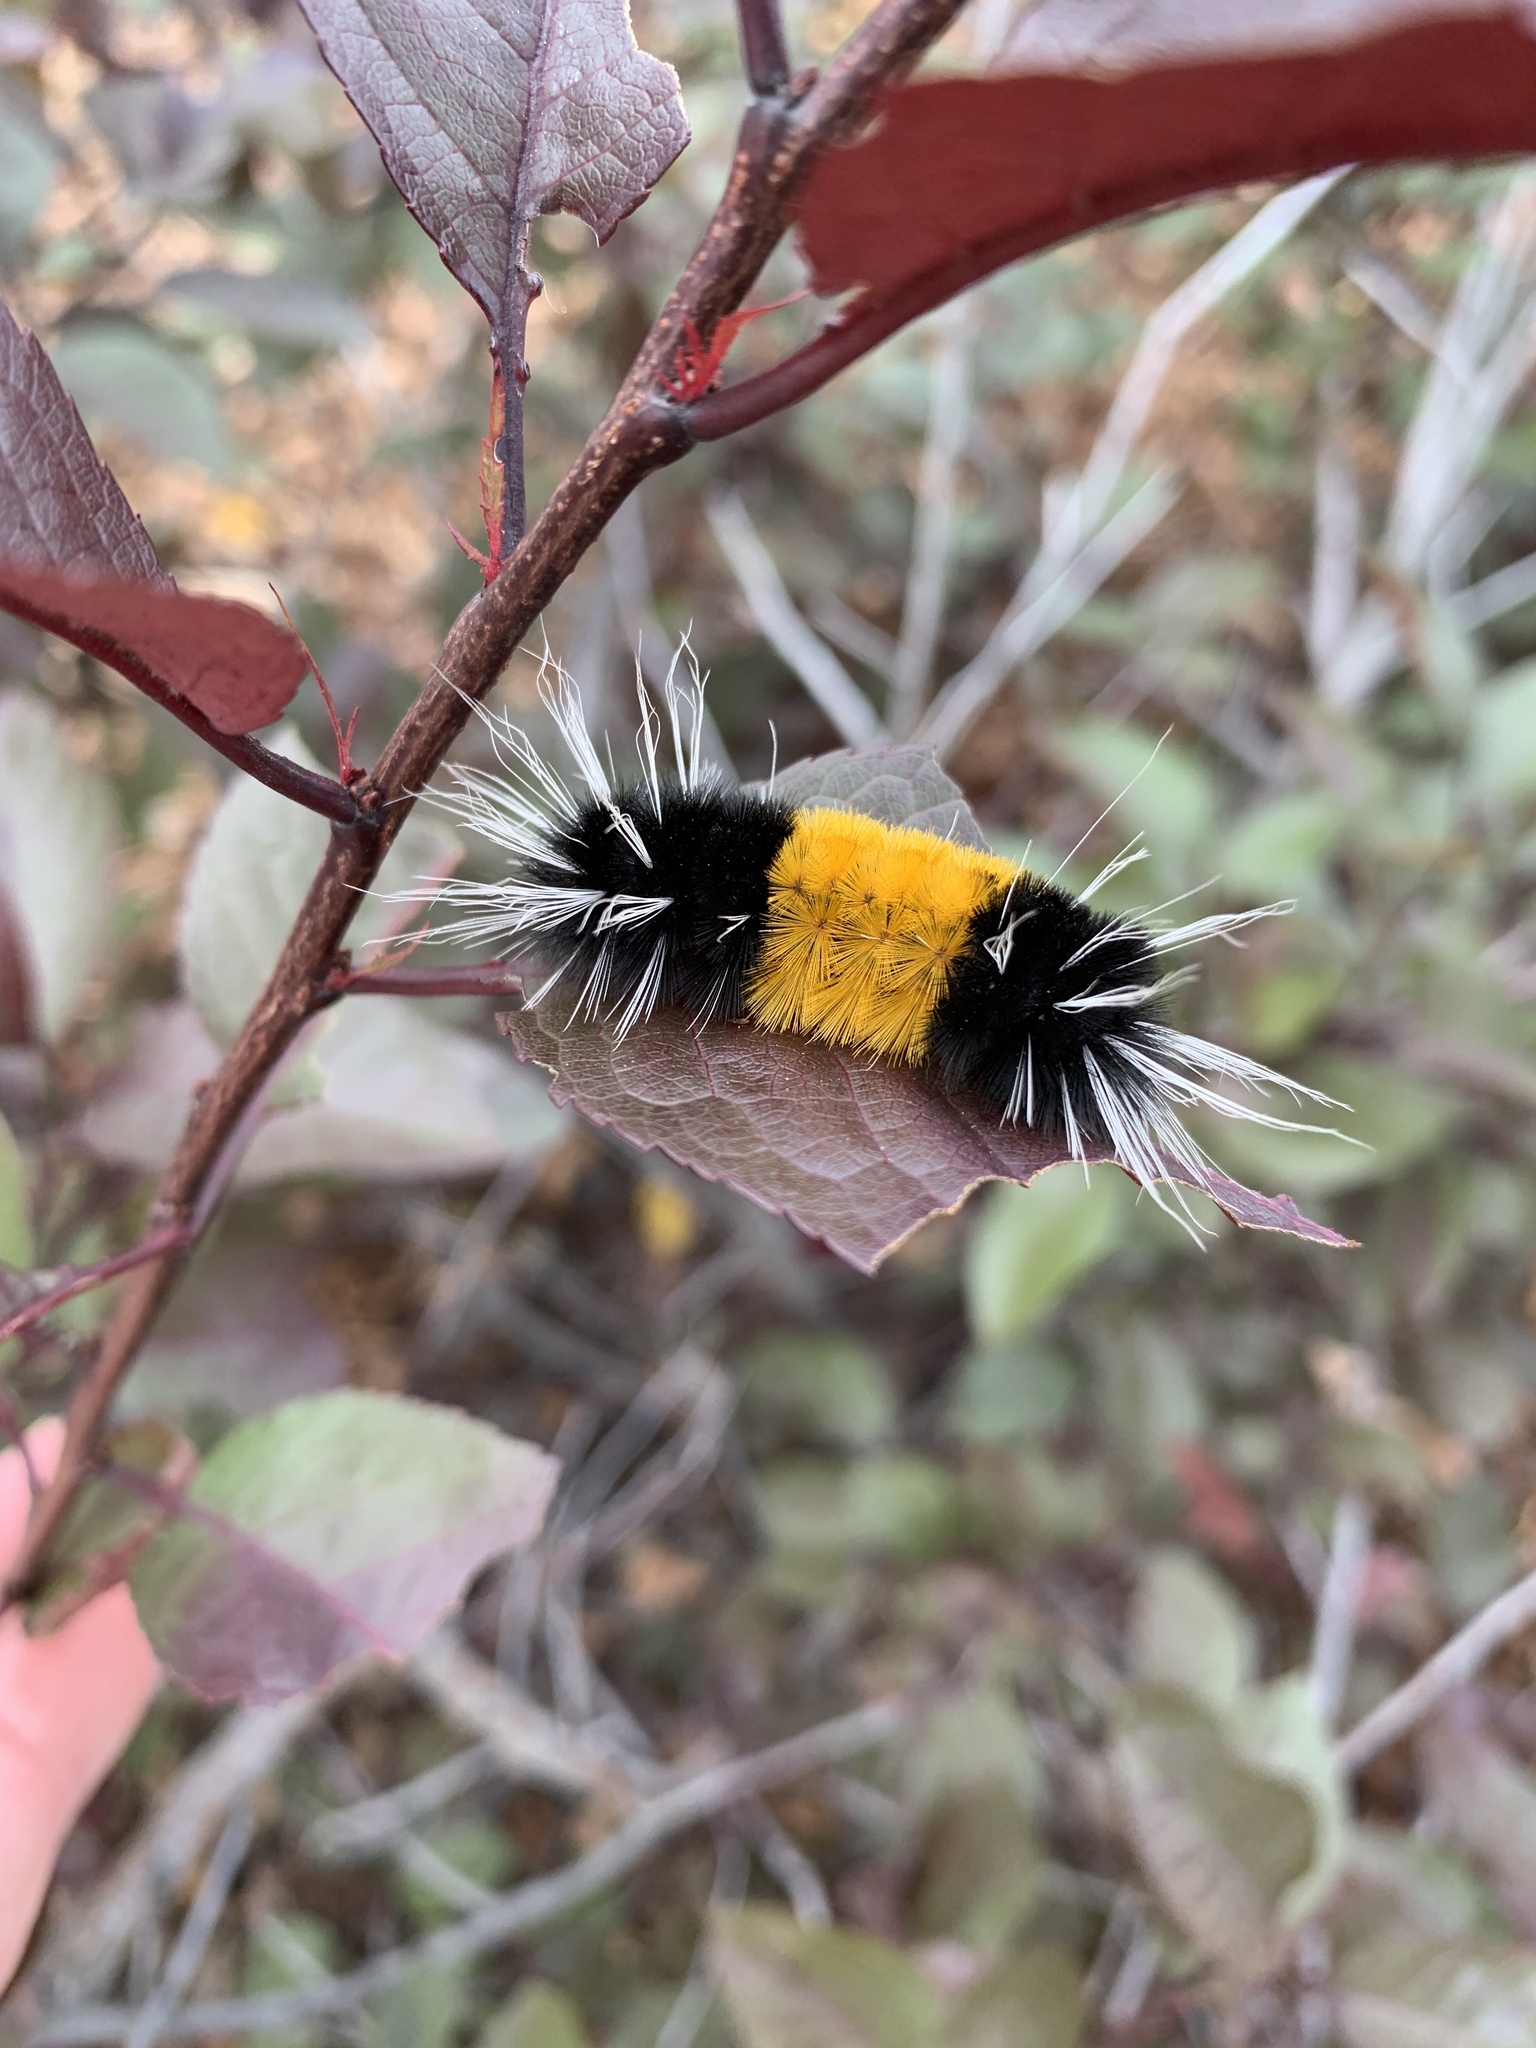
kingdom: Animalia
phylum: Arthropoda
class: Insecta
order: Lepidoptera
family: Erebidae
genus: Lophocampa
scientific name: Lophocampa maculata
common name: Spotted tussock moth
